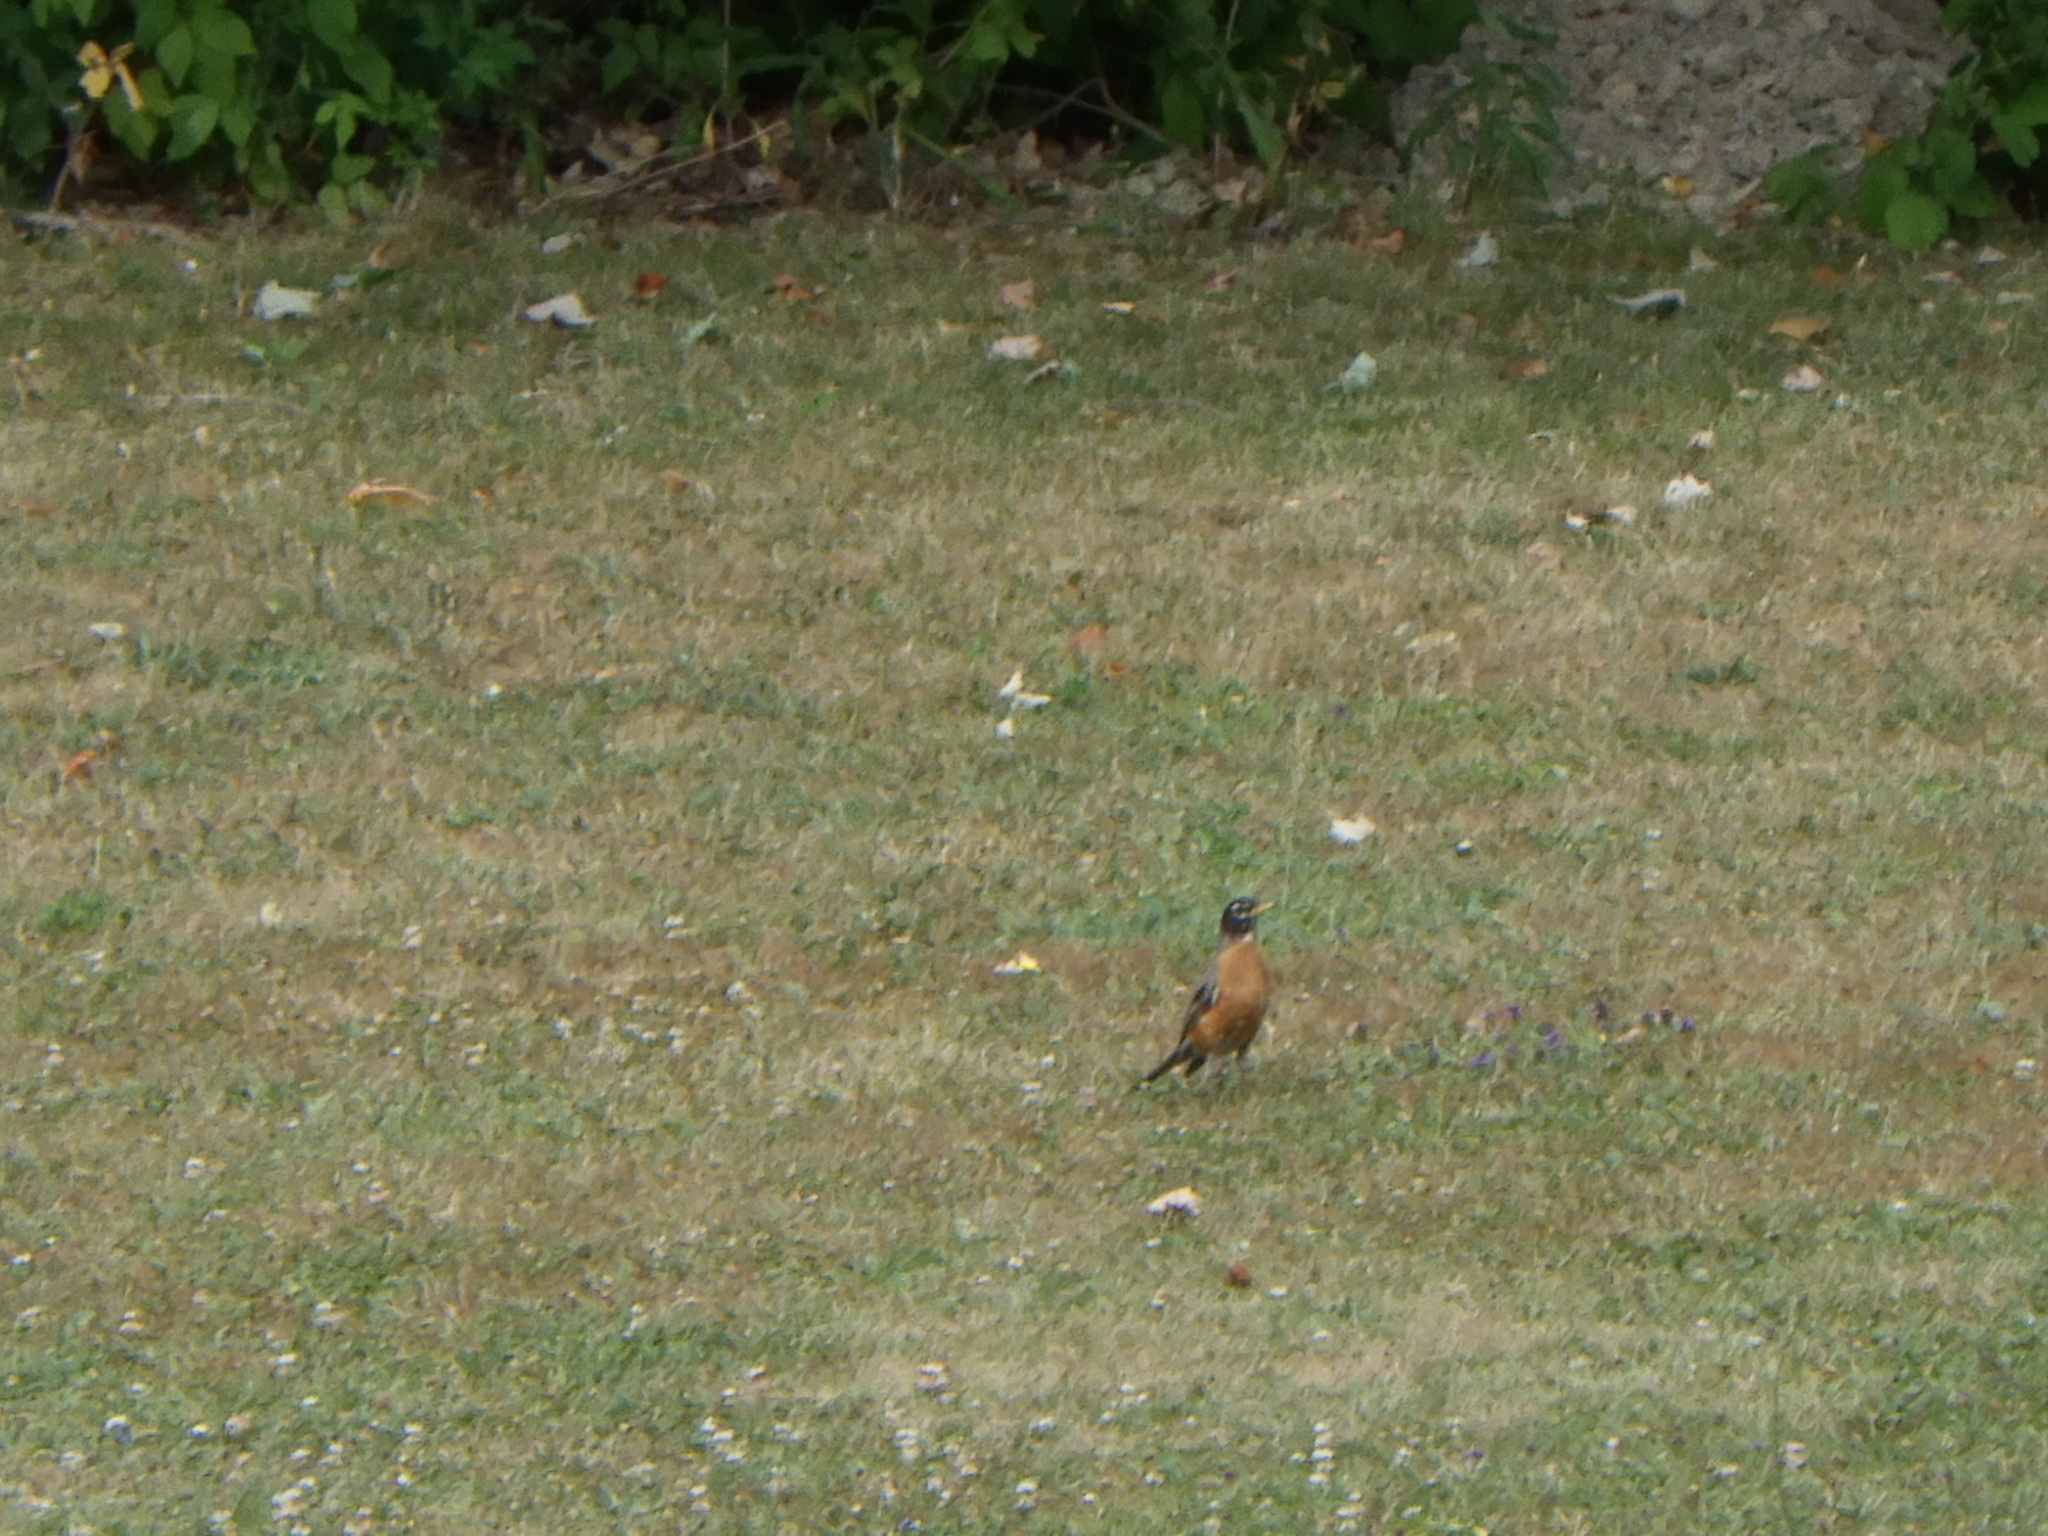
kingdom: Animalia
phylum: Chordata
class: Aves
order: Passeriformes
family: Turdidae
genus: Turdus
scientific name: Turdus migratorius
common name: American robin
